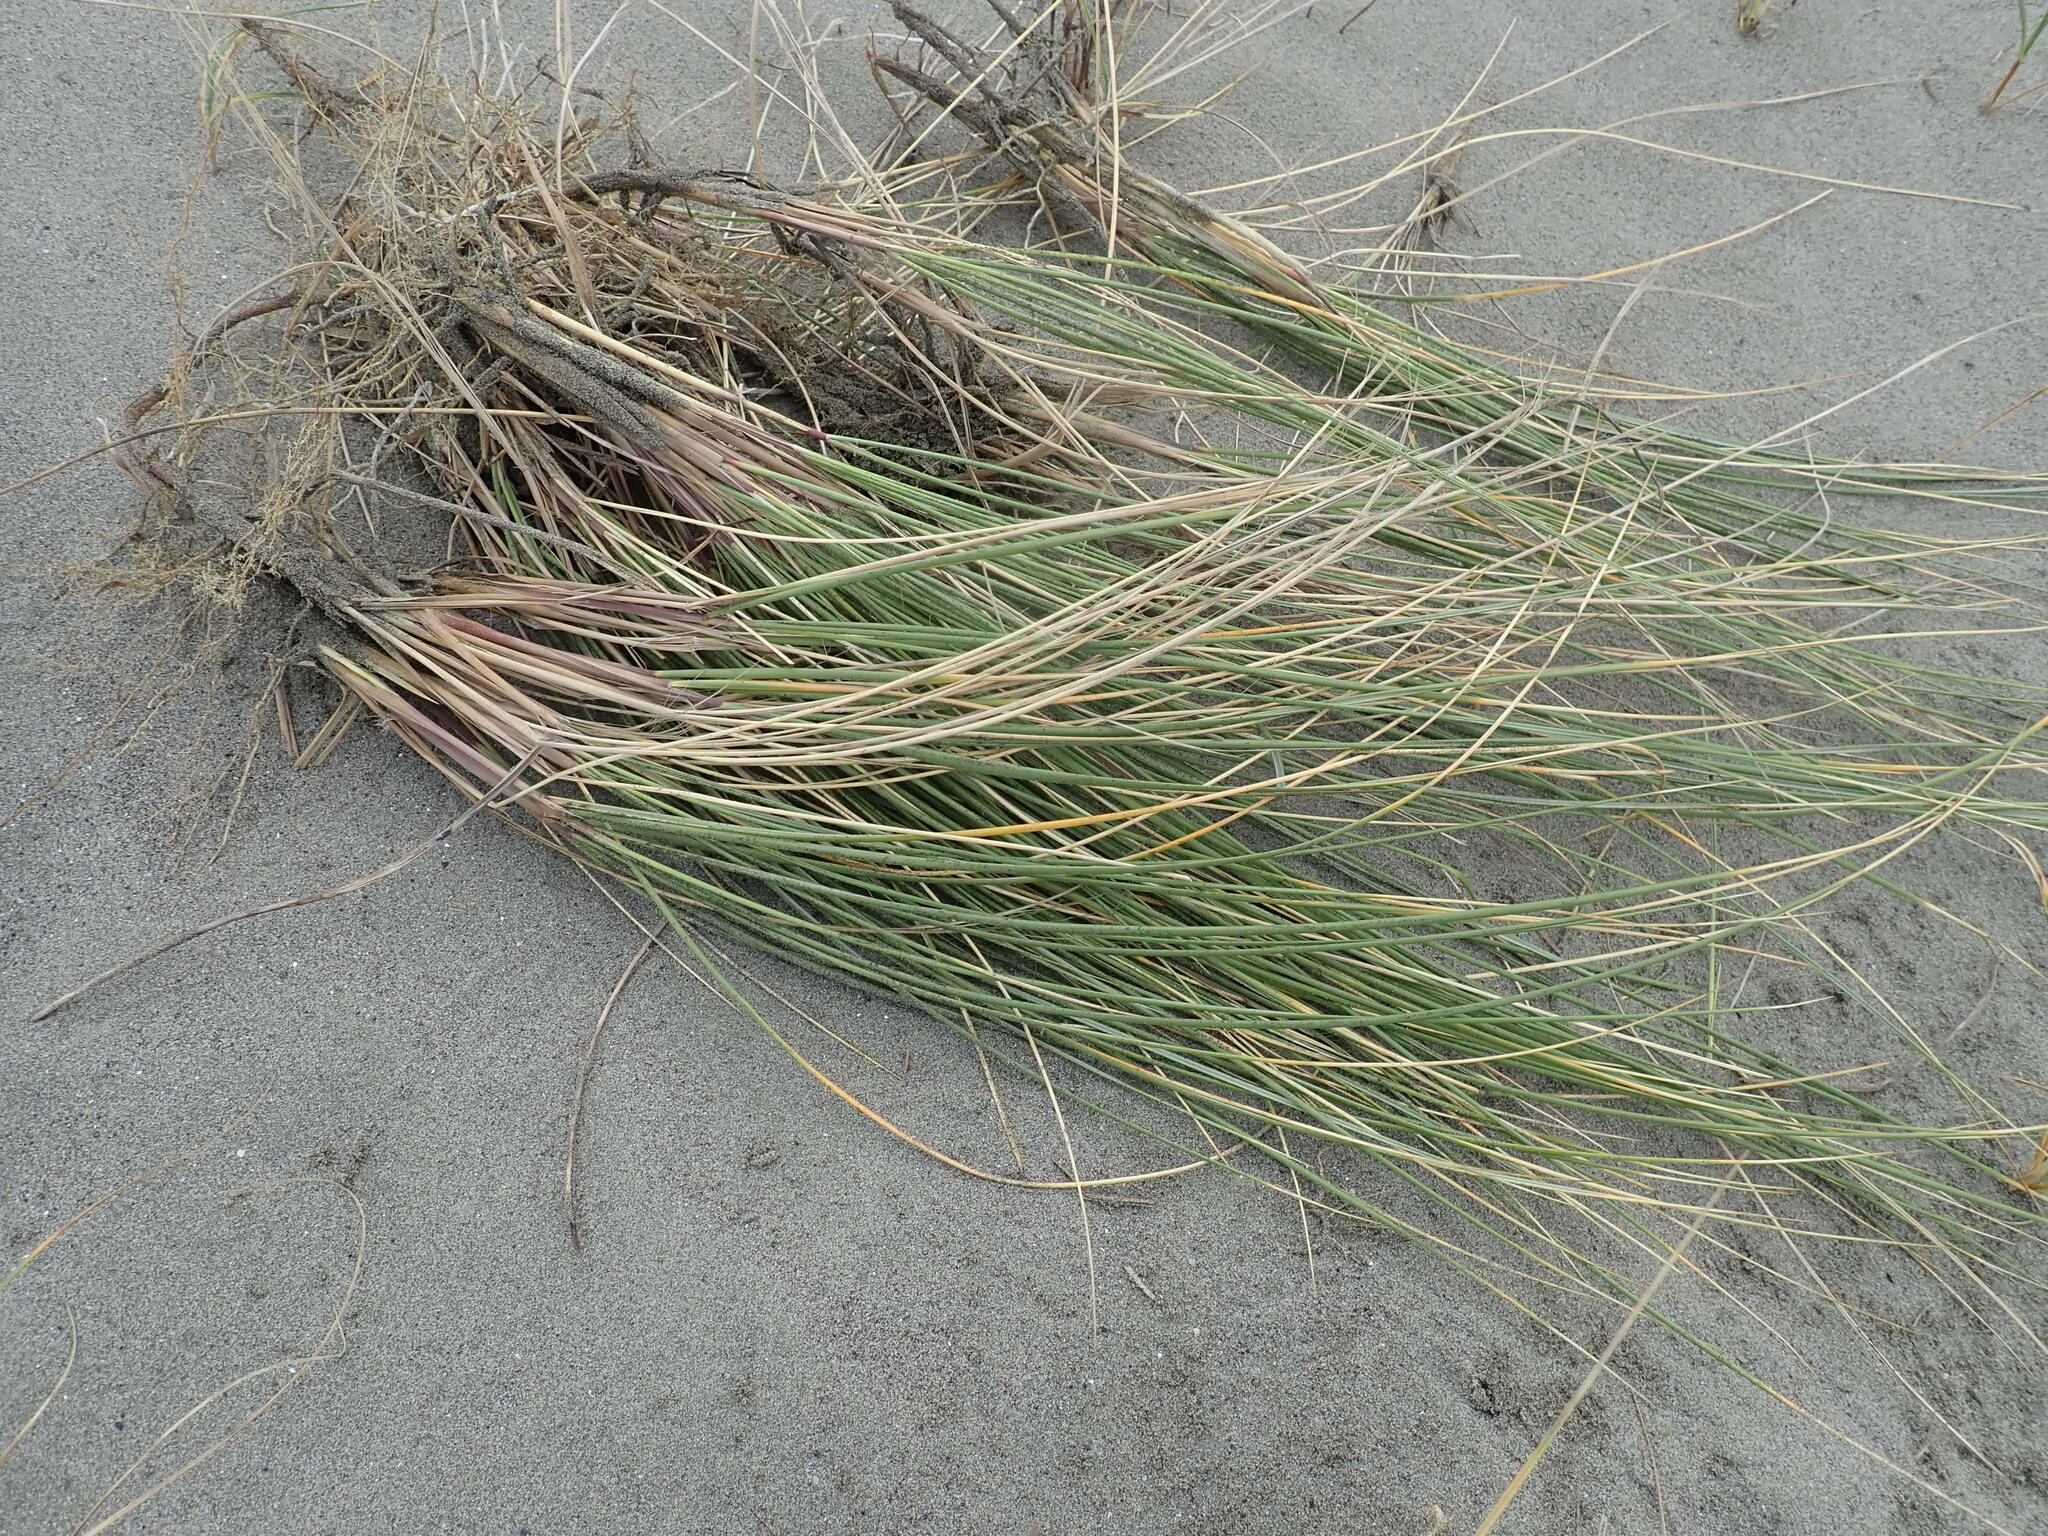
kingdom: Plantae
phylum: Tracheophyta
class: Liliopsida
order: Poales
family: Poaceae
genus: Calamagrostis
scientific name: Calamagrostis arenaria
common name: European beachgrass
